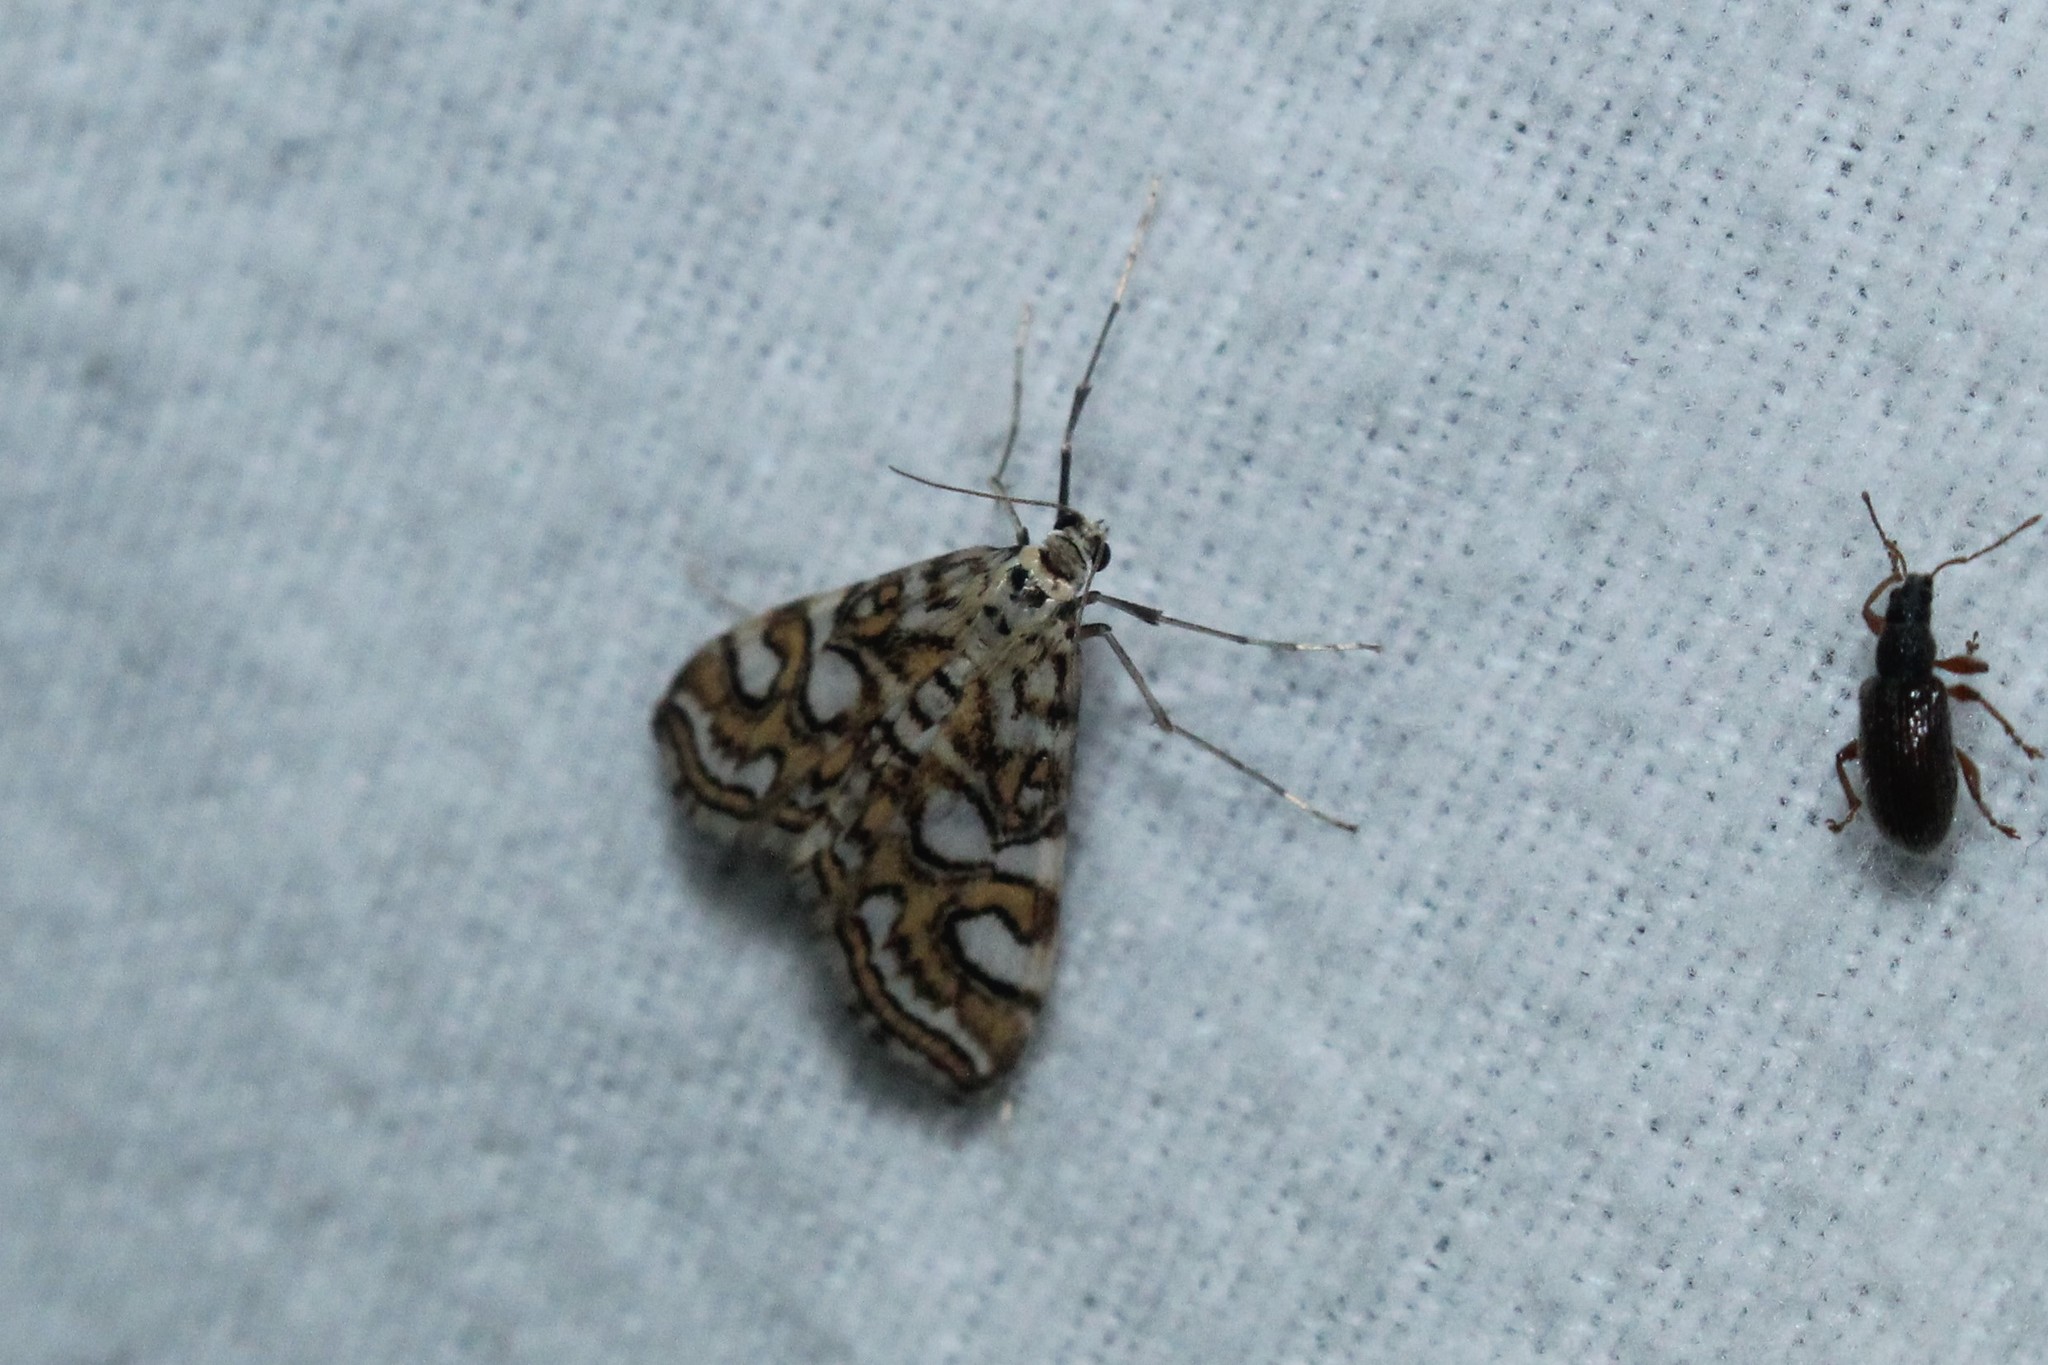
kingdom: Animalia
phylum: Arthropoda
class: Insecta
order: Lepidoptera
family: Crambidae
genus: Elophila
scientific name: Elophila ekthlipsis
